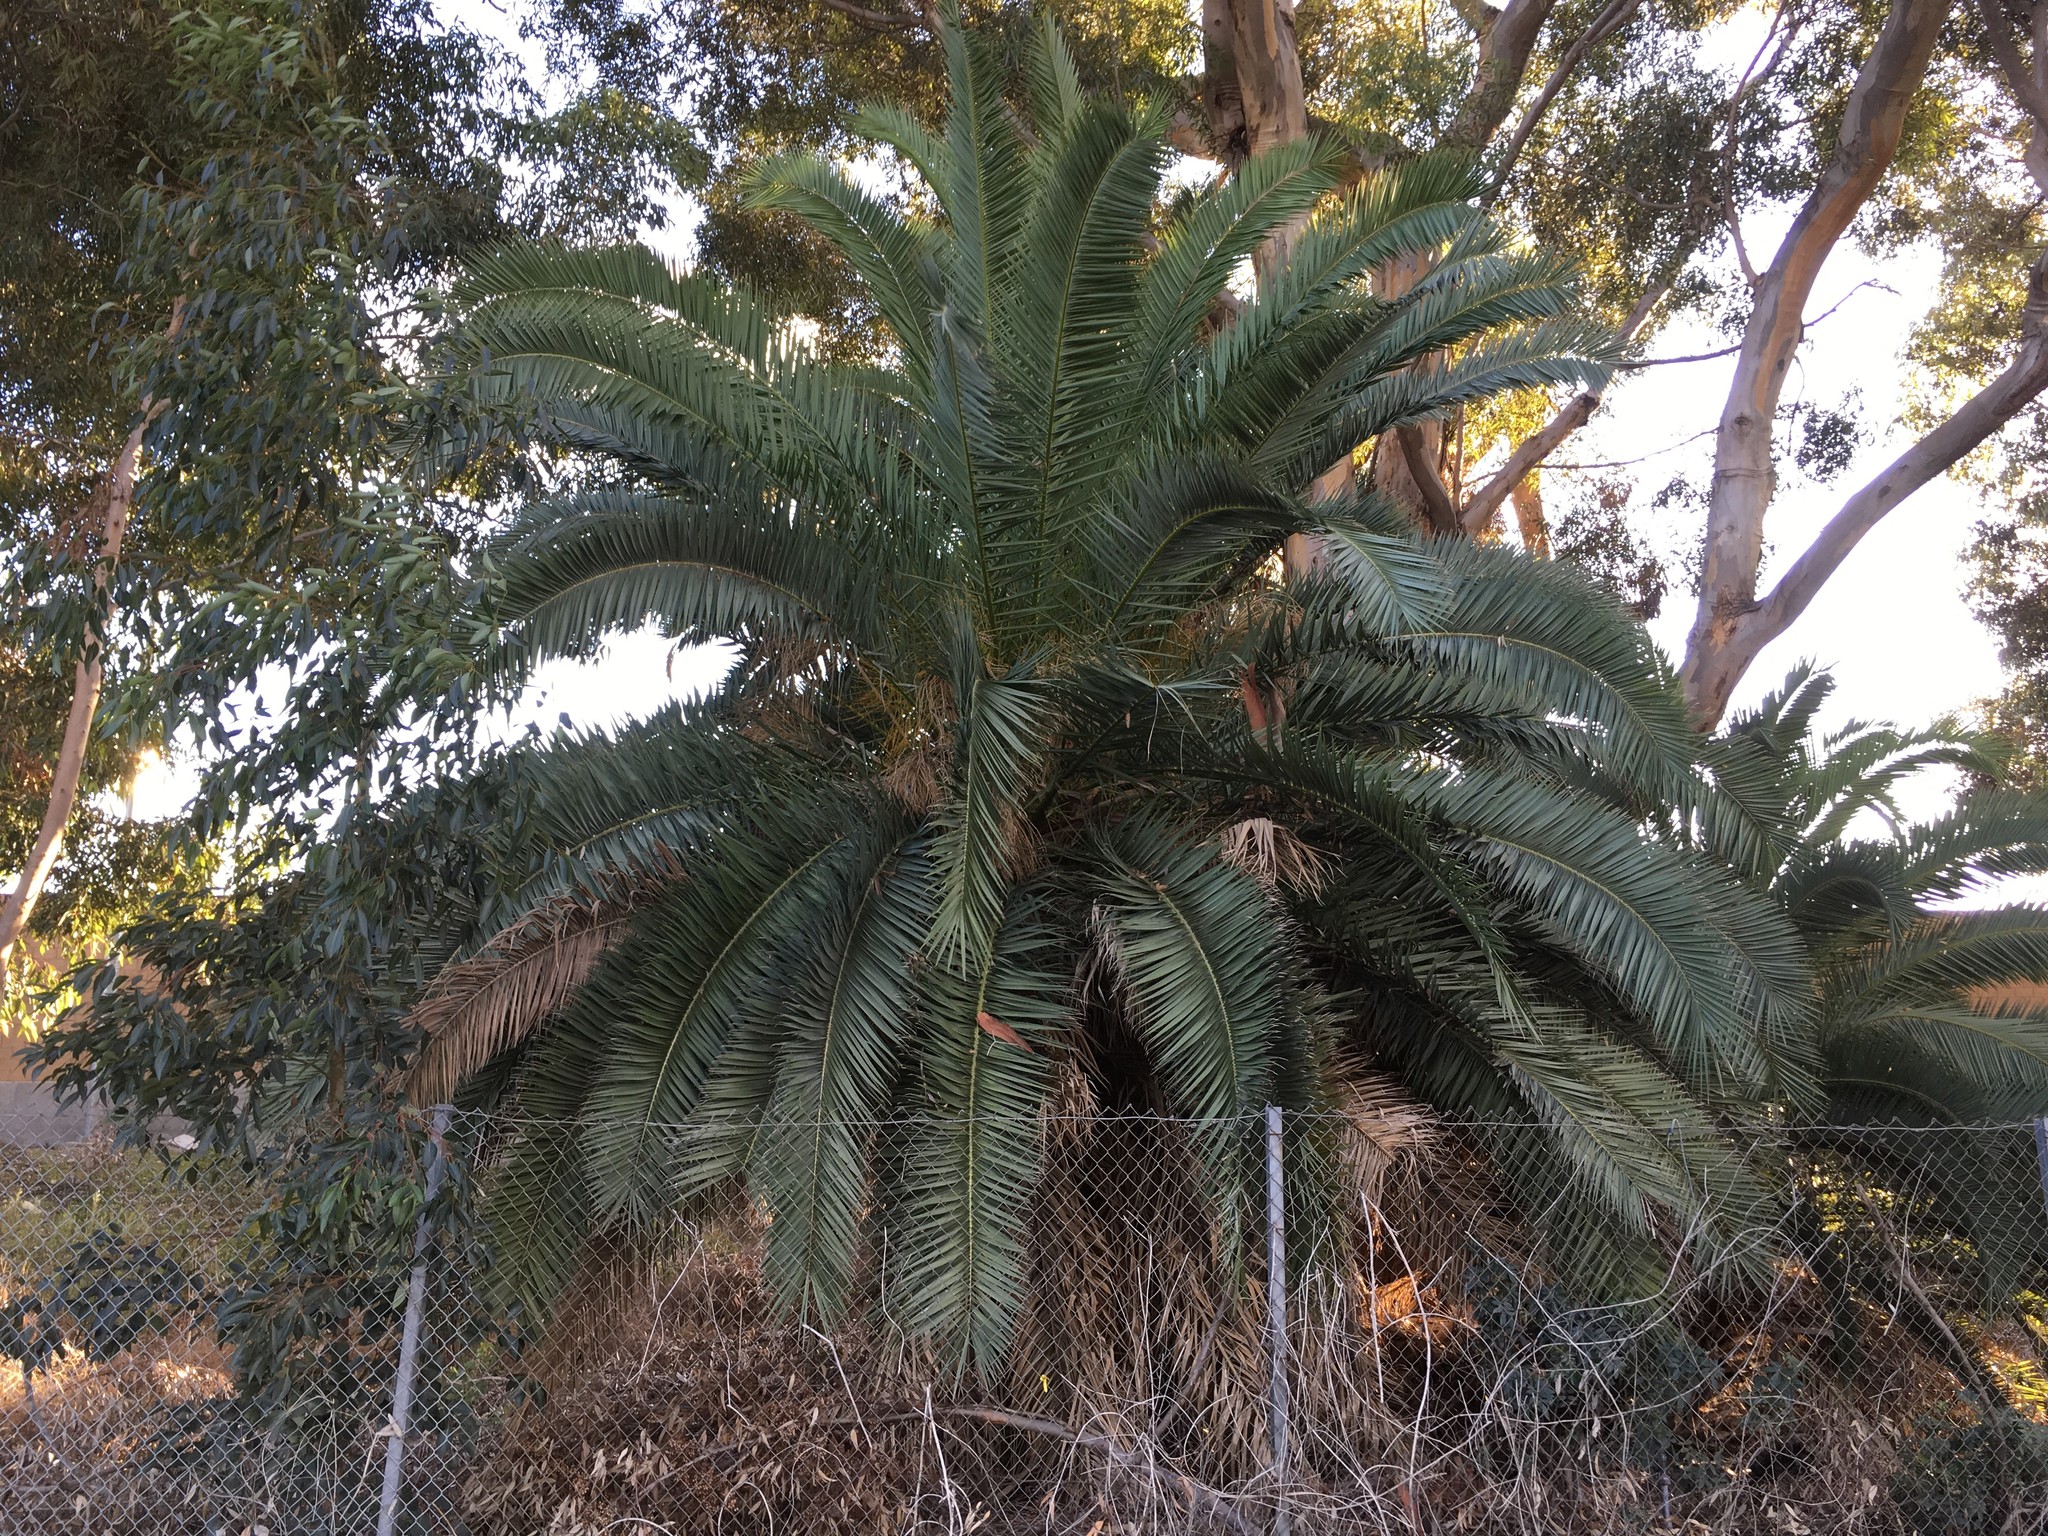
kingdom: Plantae
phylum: Tracheophyta
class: Liliopsida
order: Arecales
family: Arecaceae
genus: Phoenix
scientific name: Phoenix canariensis
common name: Canary island date palm
